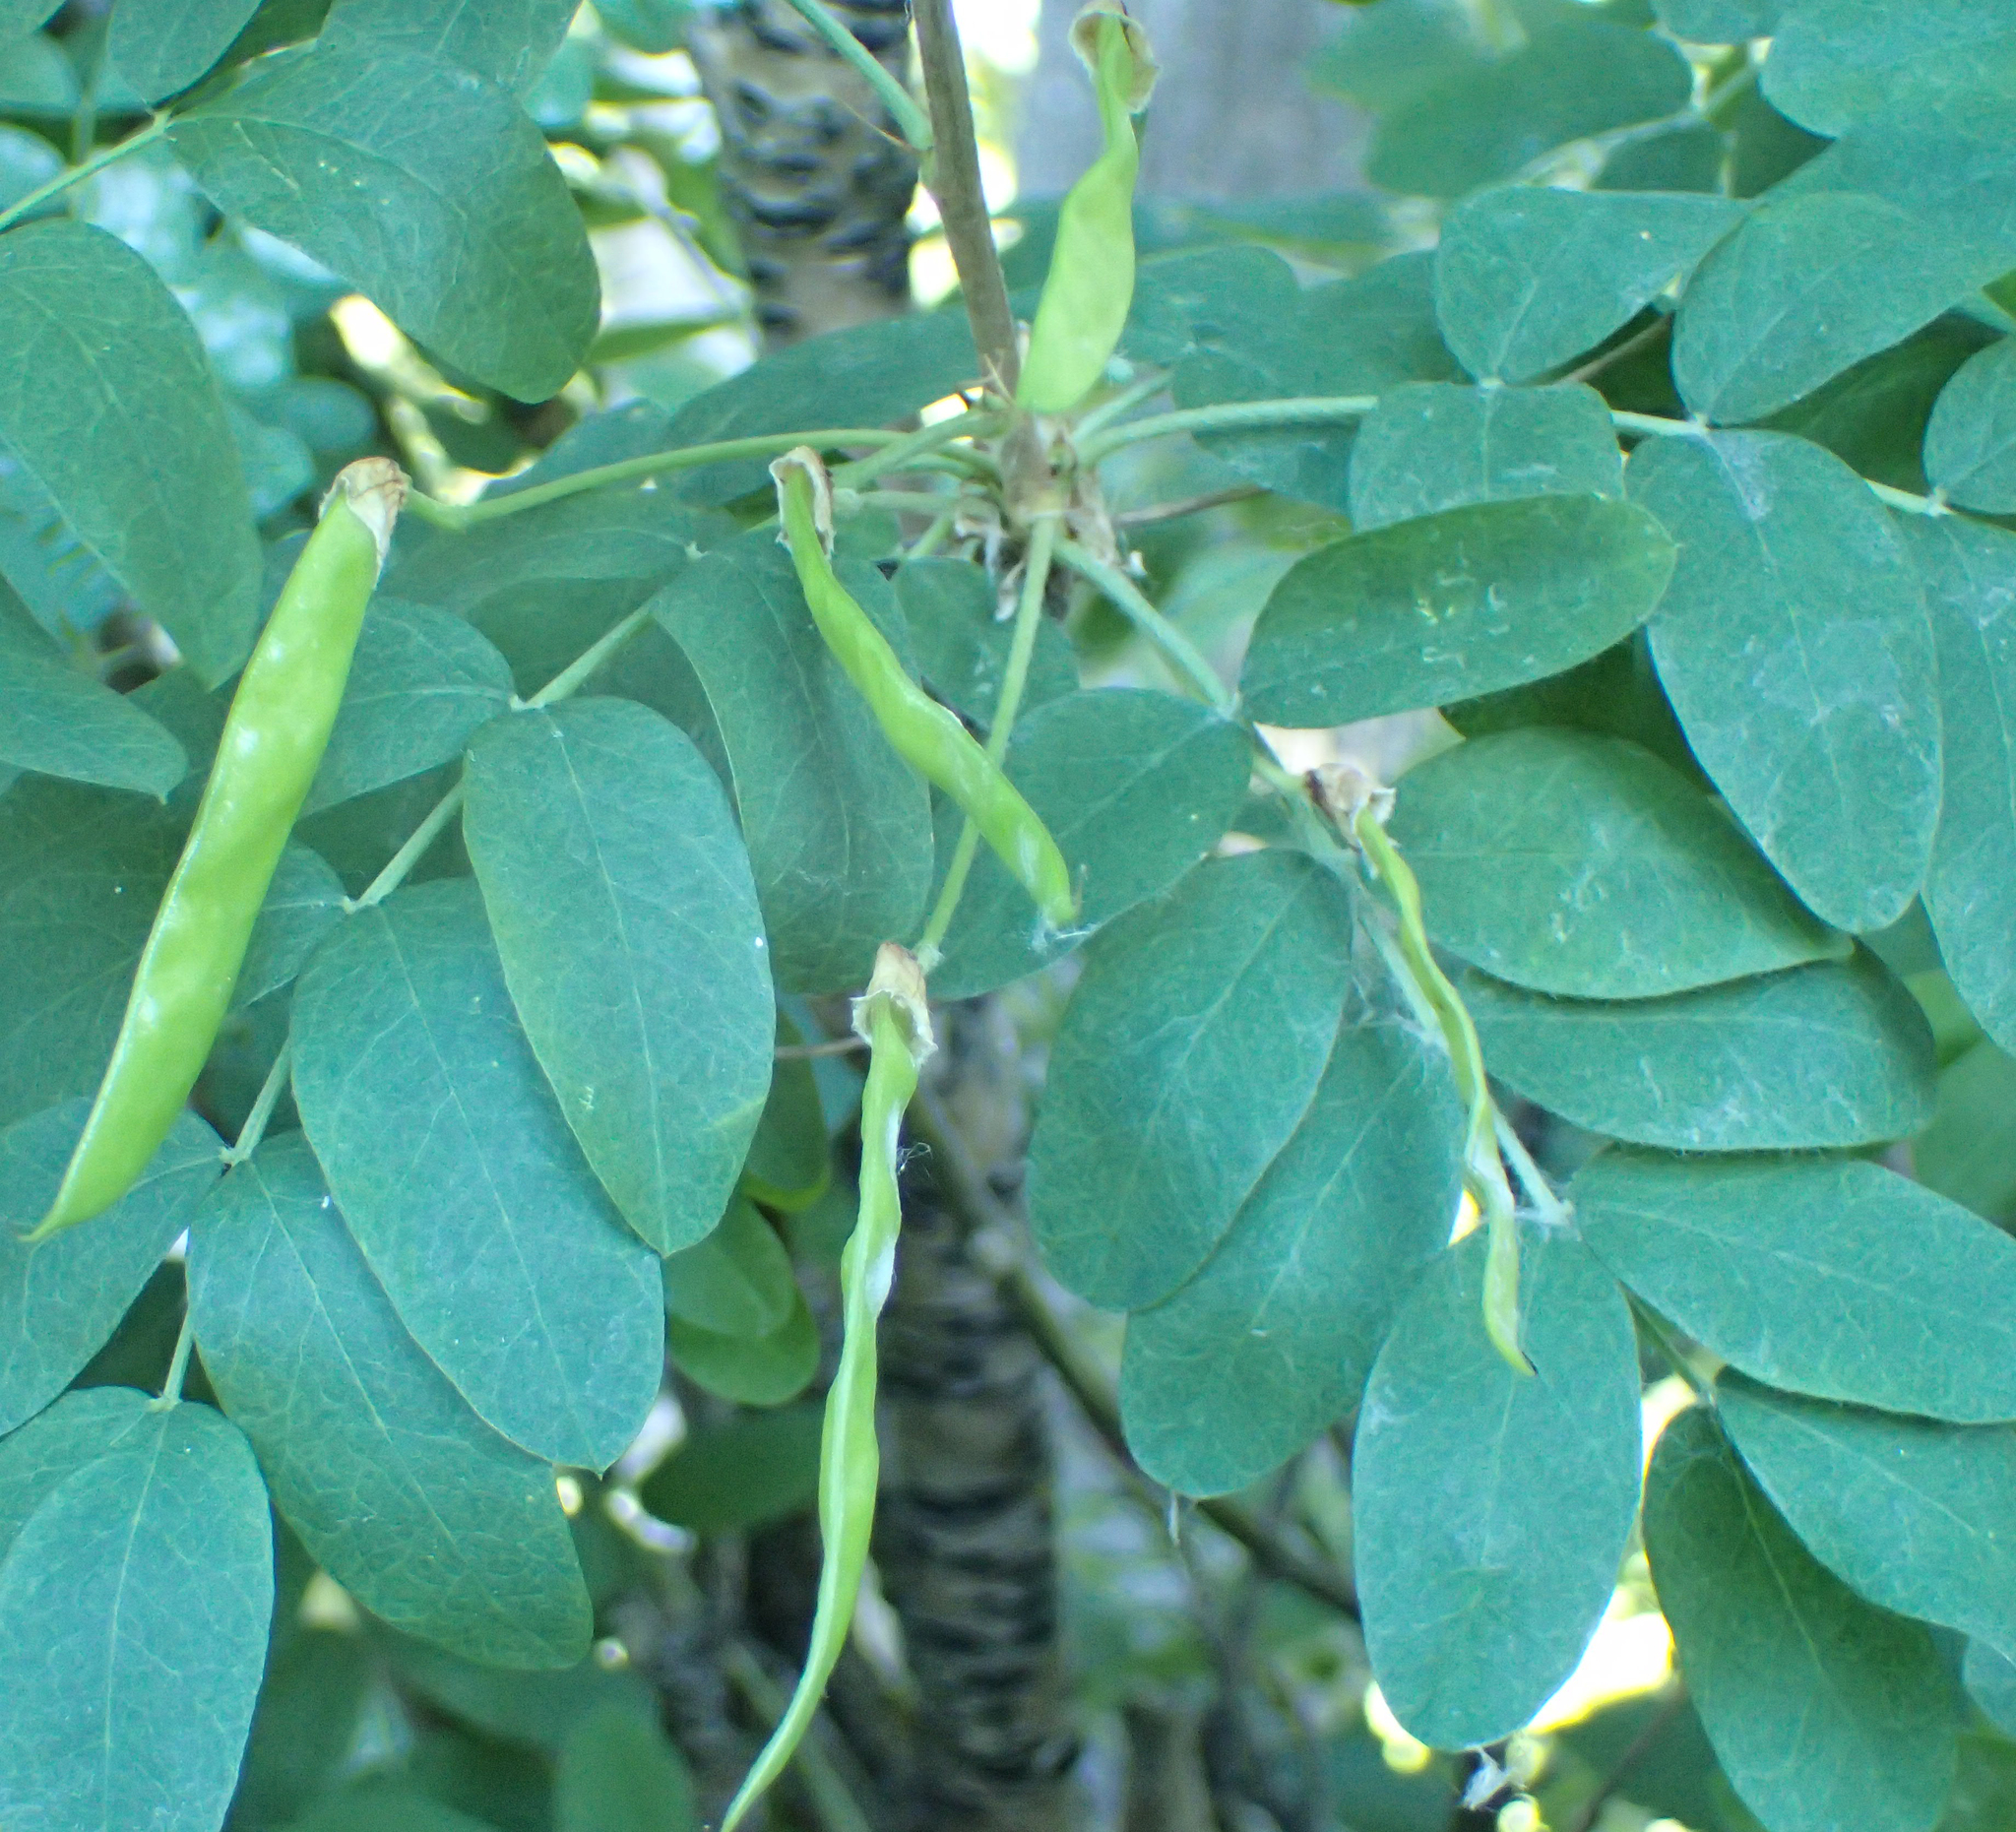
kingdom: Plantae
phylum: Tracheophyta
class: Magnoliopsida
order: Fabales
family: Fabaceae
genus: Caragana
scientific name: Caragana arborescens
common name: Siberian peashrub
